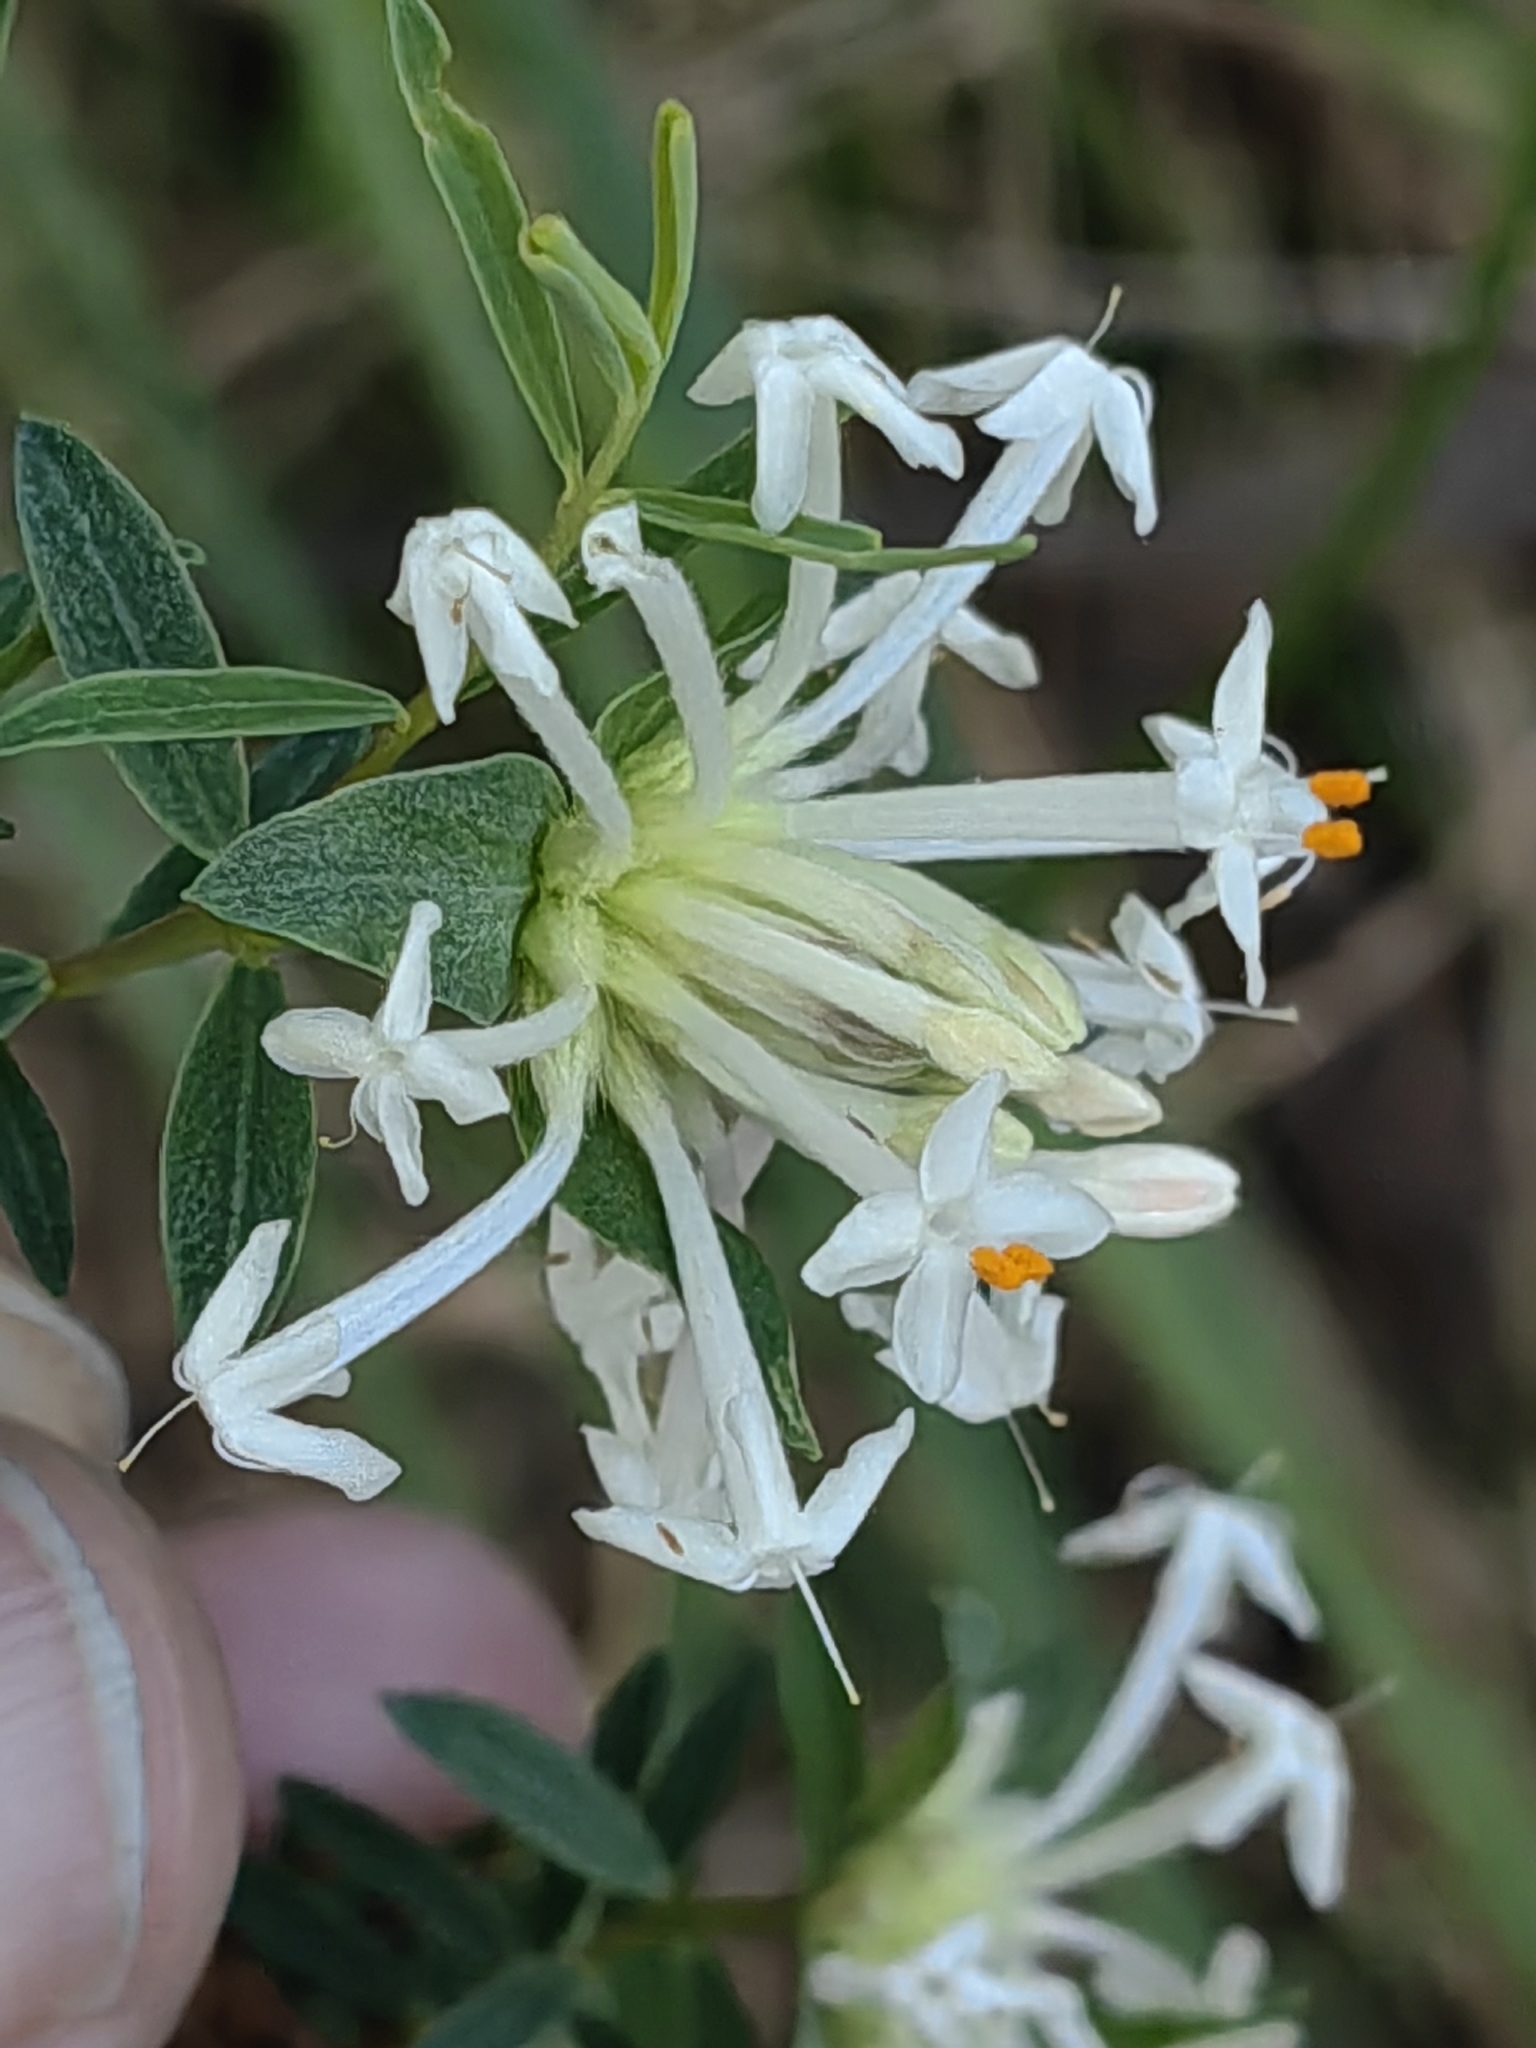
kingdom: Plantae
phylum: Tracheophyta
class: Magnoliopsida
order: Malvales
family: Thymelaeaceae
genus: Pimelea
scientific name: Pimelea linifolia
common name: Queen-of-the-bush
